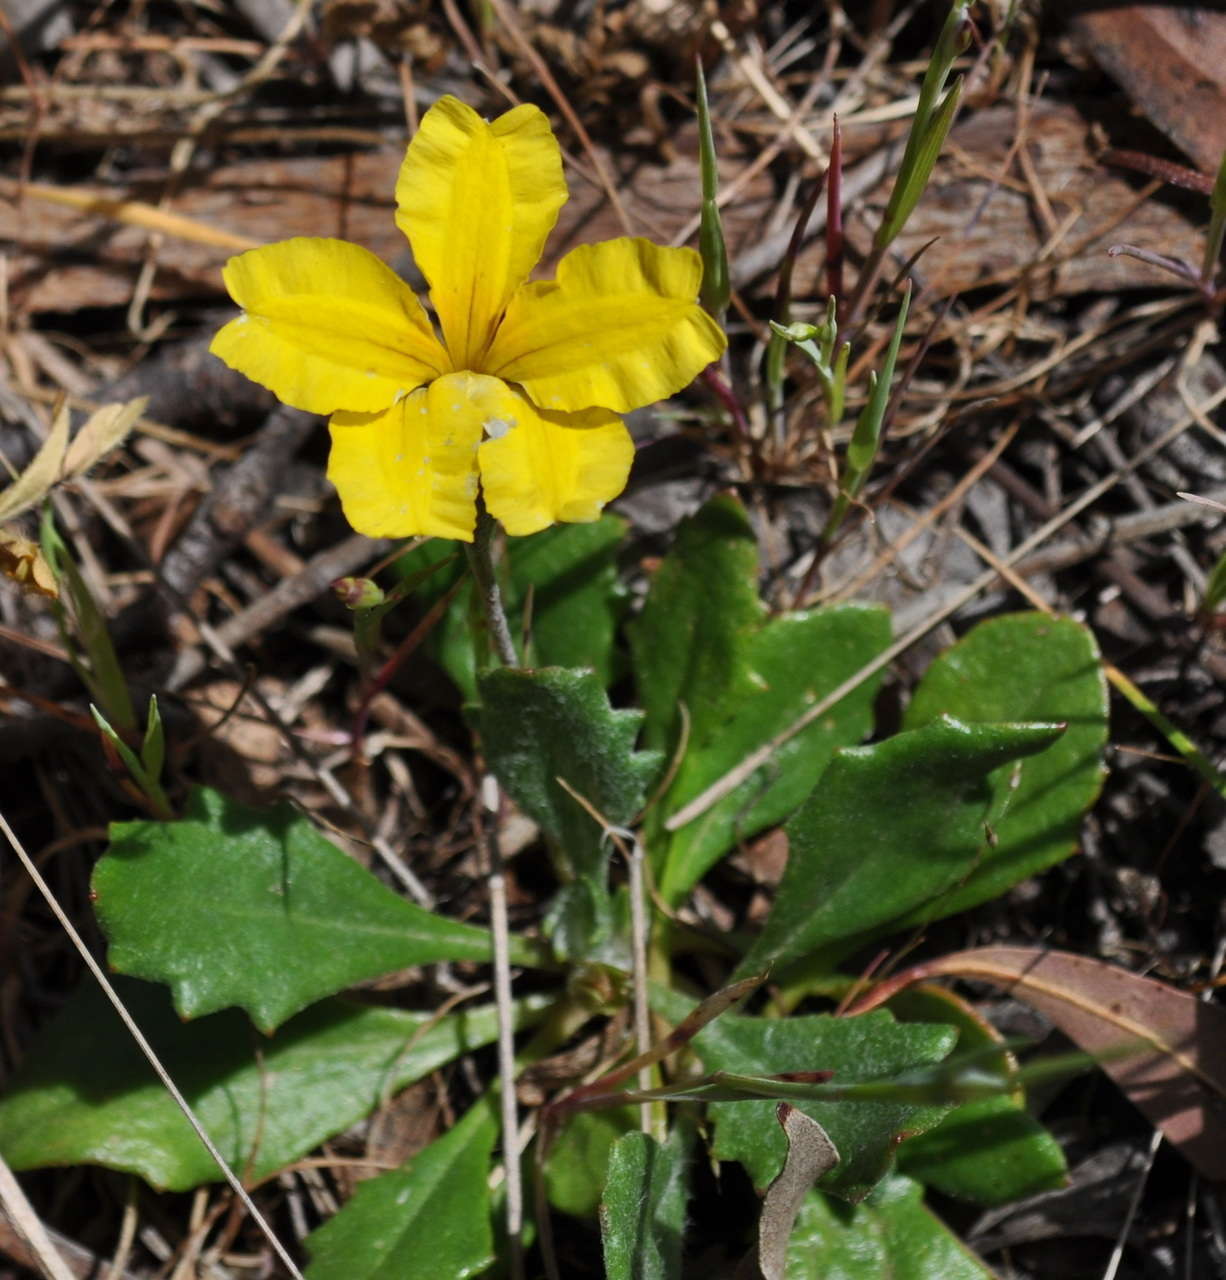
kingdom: Plantae
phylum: Tracheophyta
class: Magnoliopsida
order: Asterales
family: Goodeniaceae
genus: Goodenia
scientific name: Goodenia geniculata
